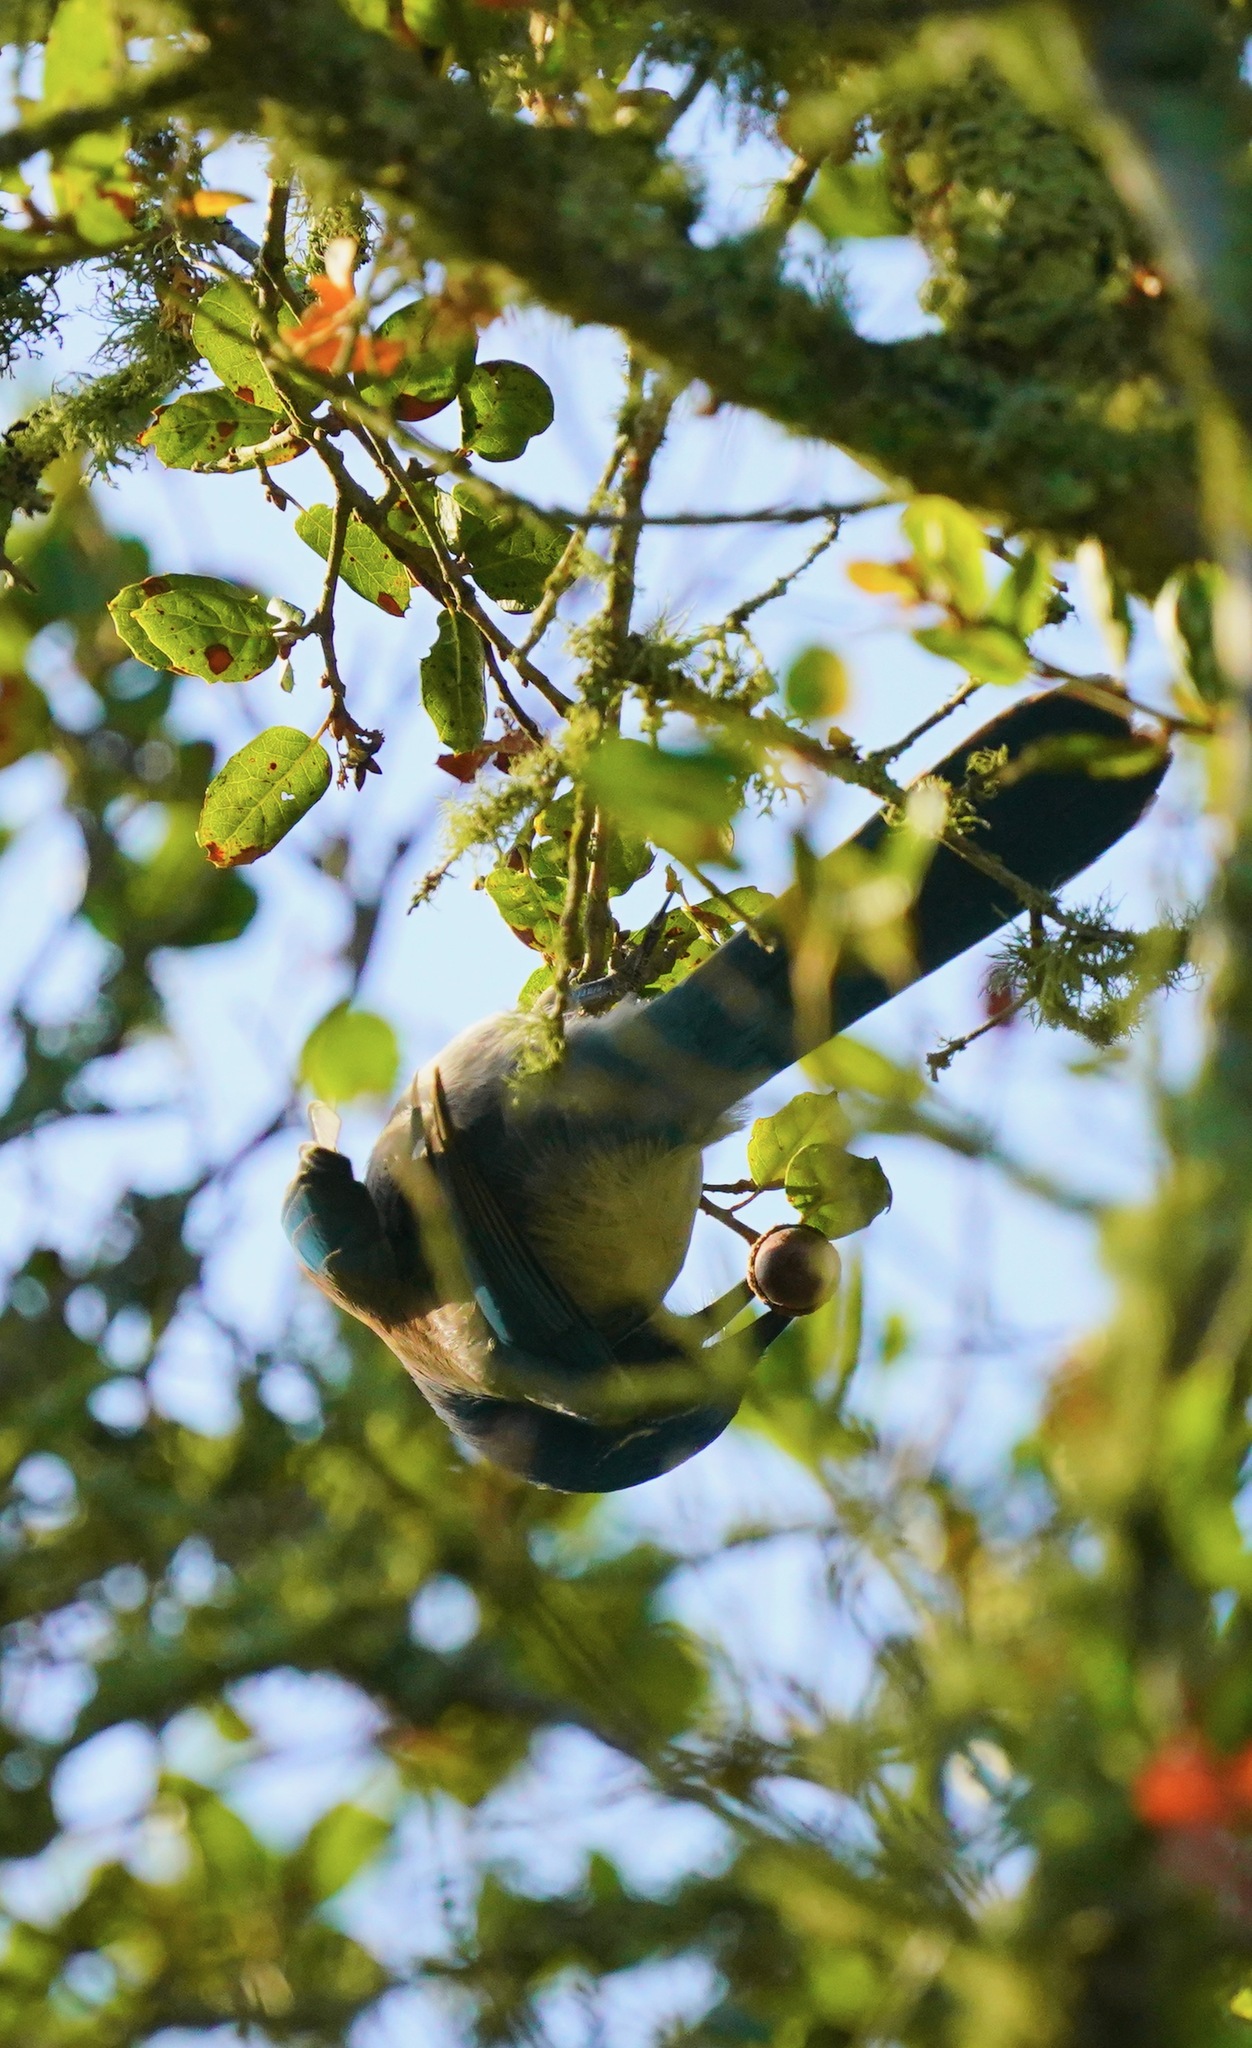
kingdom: Animalia
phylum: Chordata
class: Aves
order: Passeriformes
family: Corvidae
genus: Aphelocoma
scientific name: Aphelocoma californica
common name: California scrub-jay
